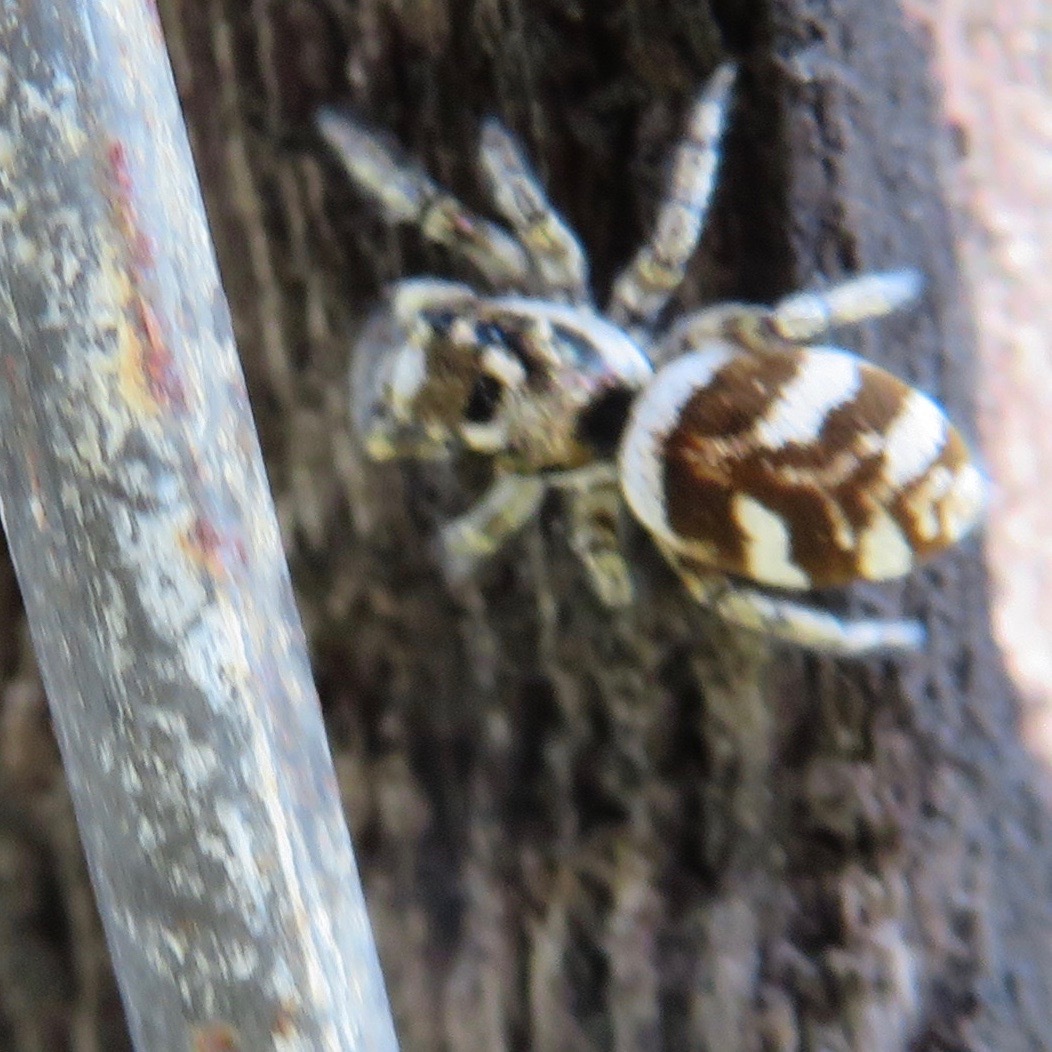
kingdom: Animalia
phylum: Arthropoda
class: Arachnida
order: Araneae
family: Salticidae
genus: Salticus
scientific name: Salticus scenicus
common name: Zebra jumper
